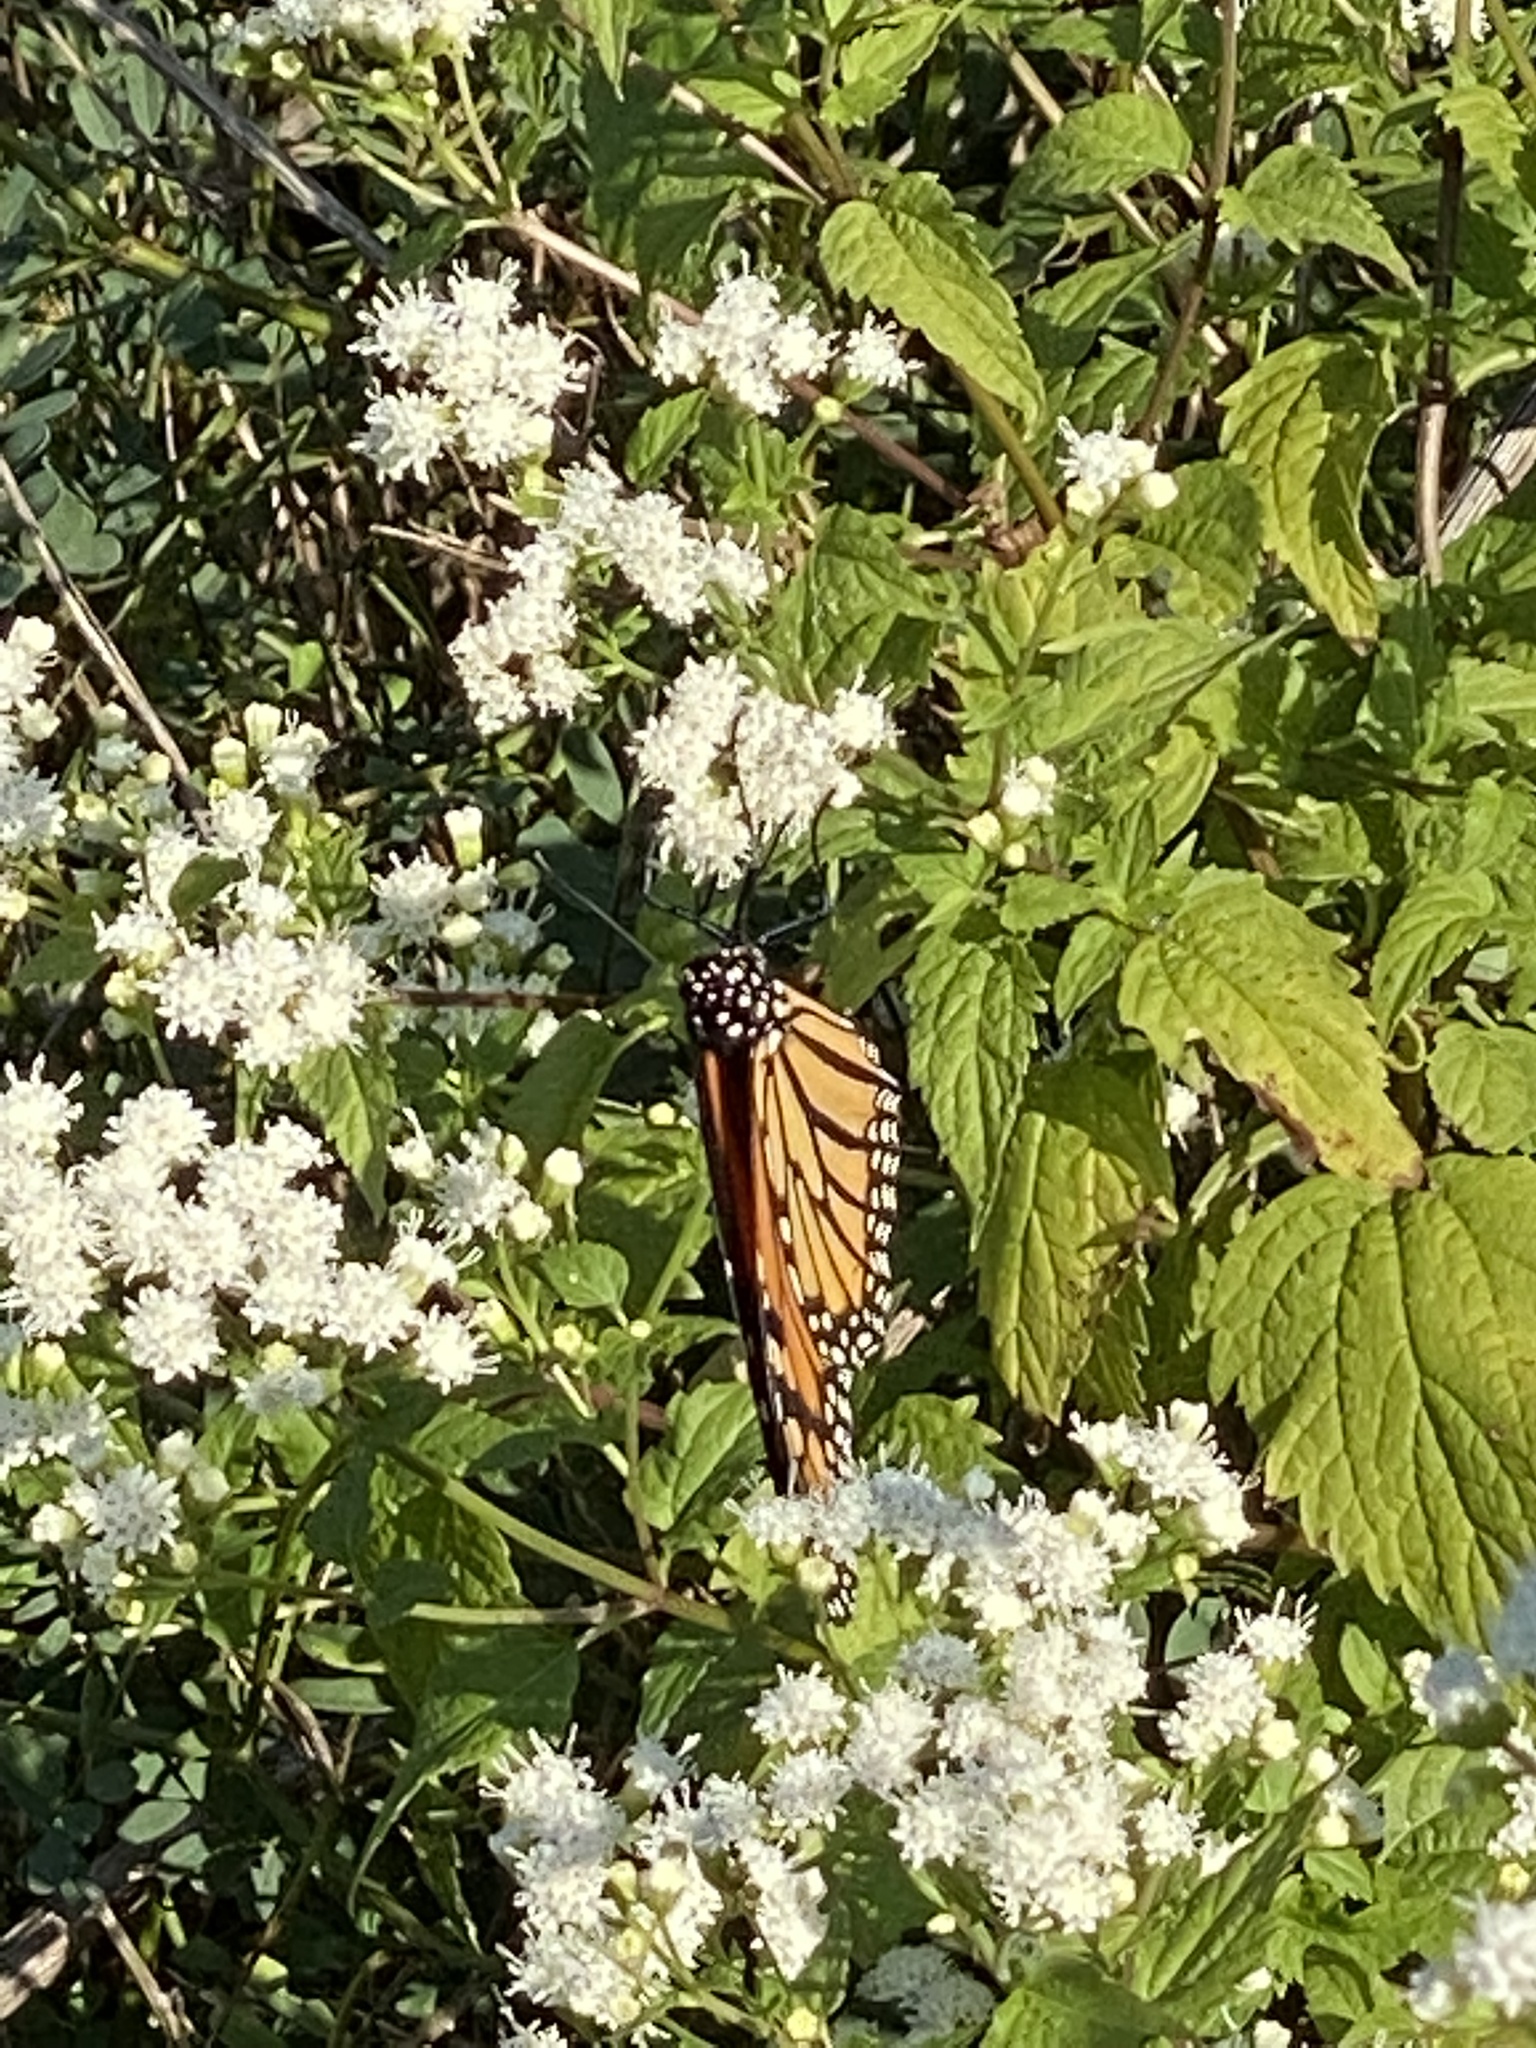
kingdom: Animalia
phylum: Arthropoda
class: Insecta
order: Lepidoptera
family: Nymphalidae
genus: Danaus
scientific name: Danaus plexippus
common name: Monarch
